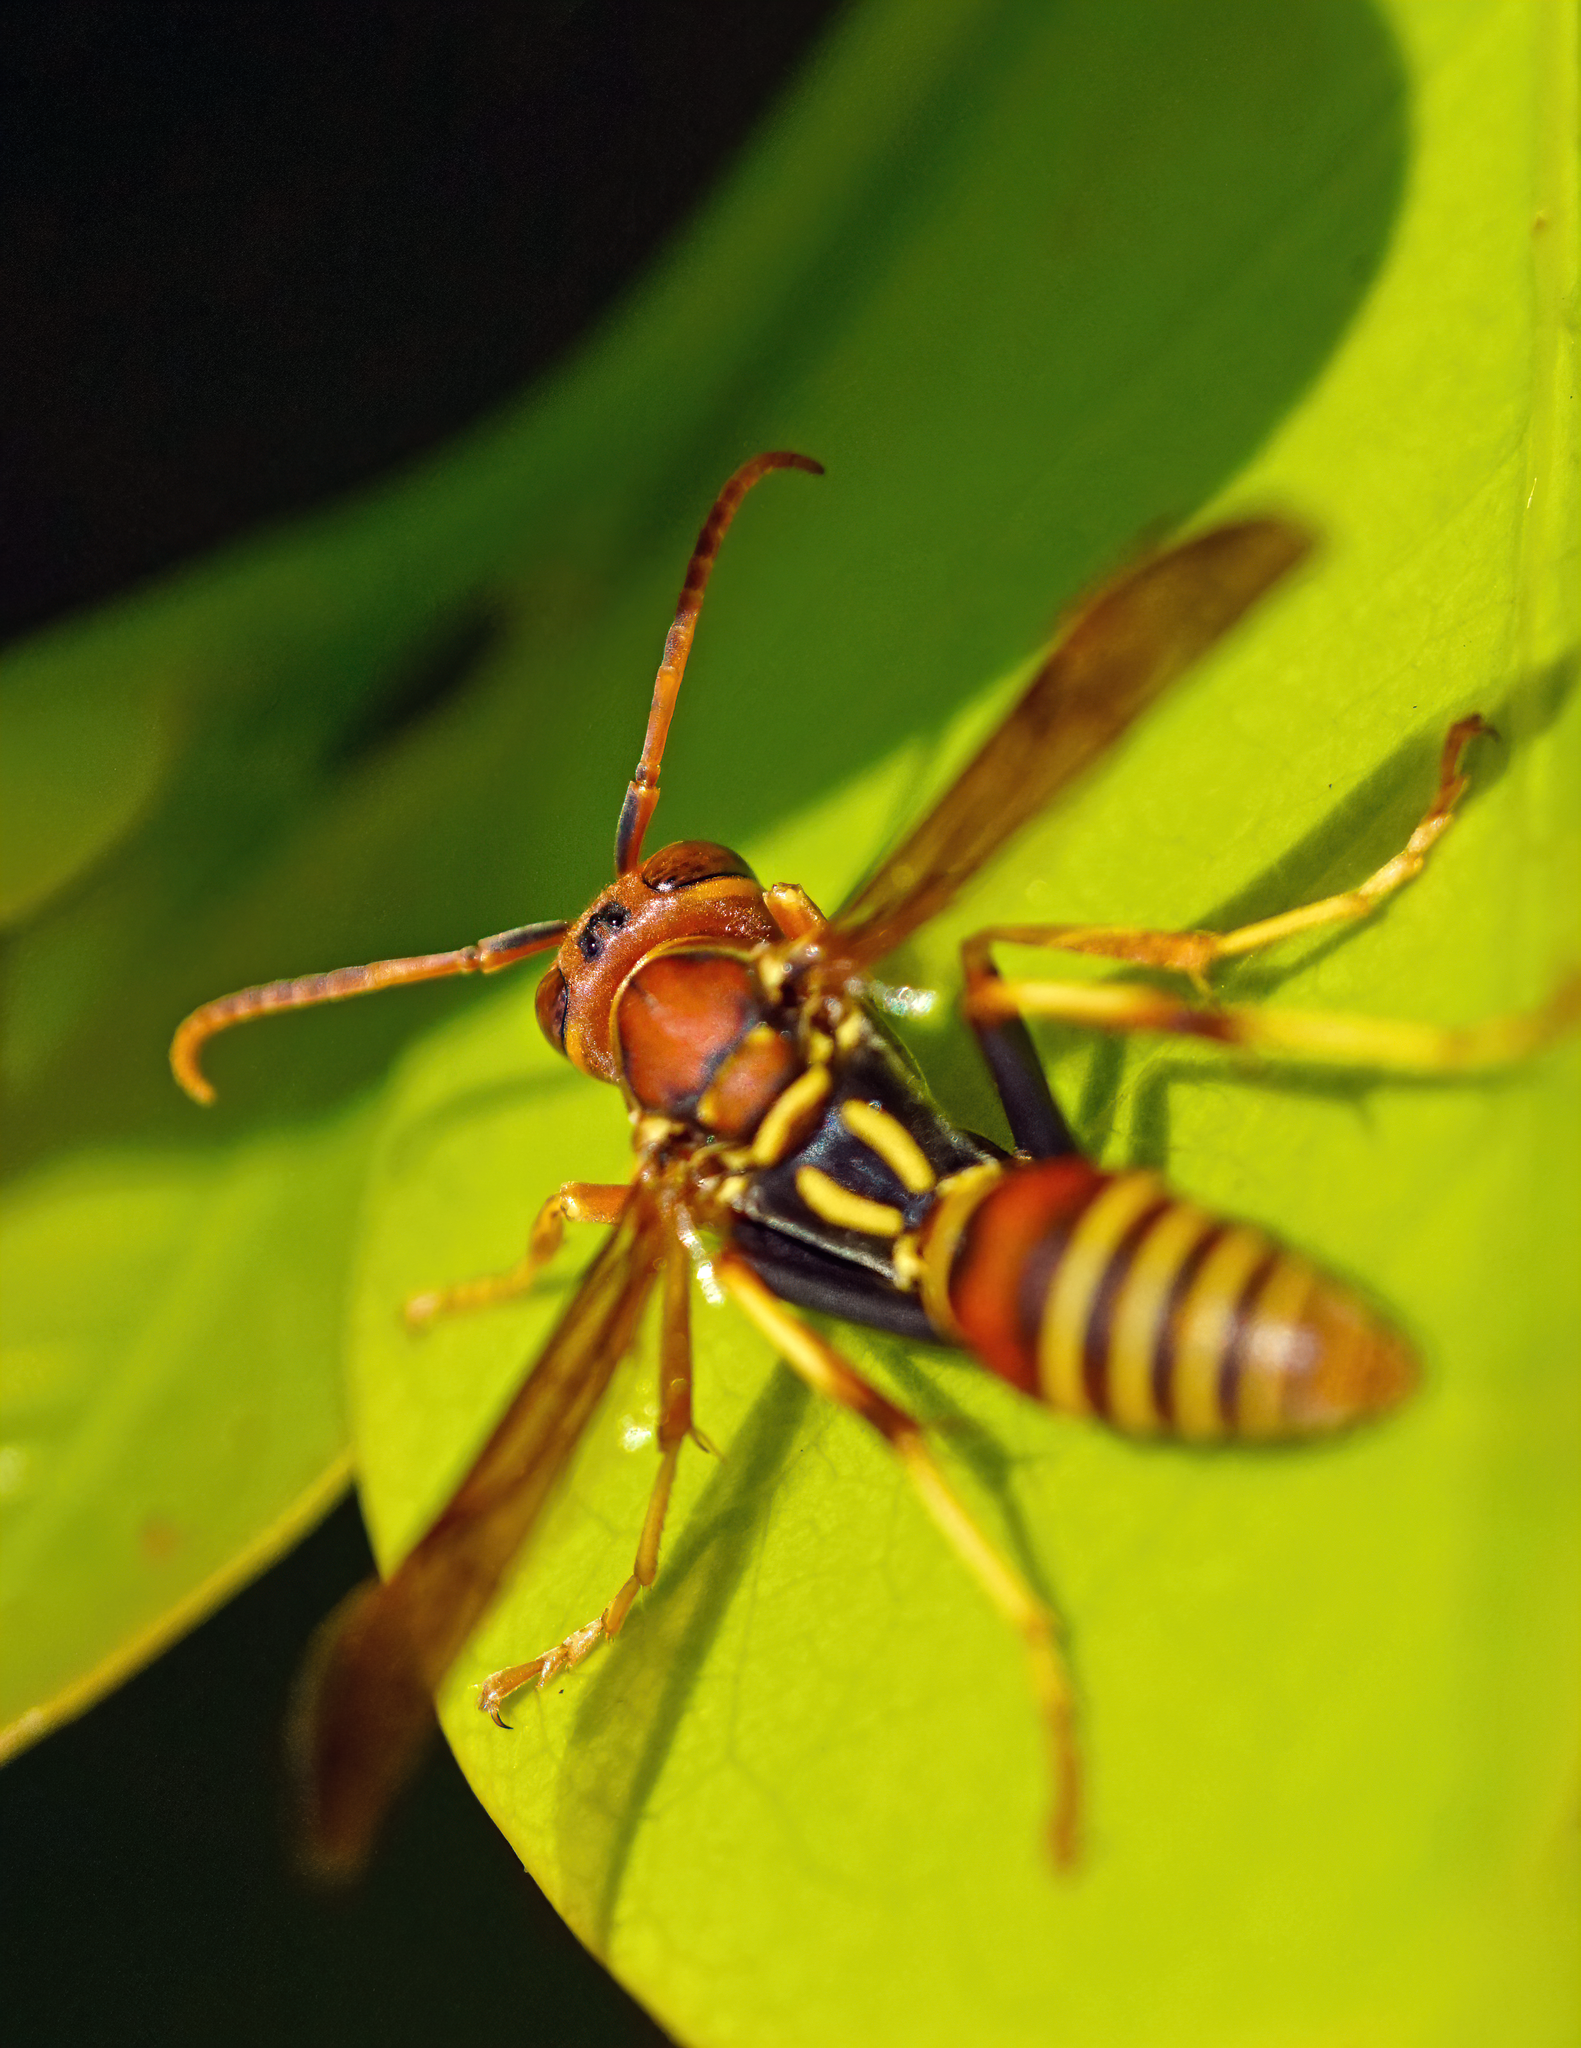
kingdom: Animalia
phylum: Arthropoda
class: Insecta
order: Hymenoptera
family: Eumenidae
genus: Polistes
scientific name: Polistes dorsalis
